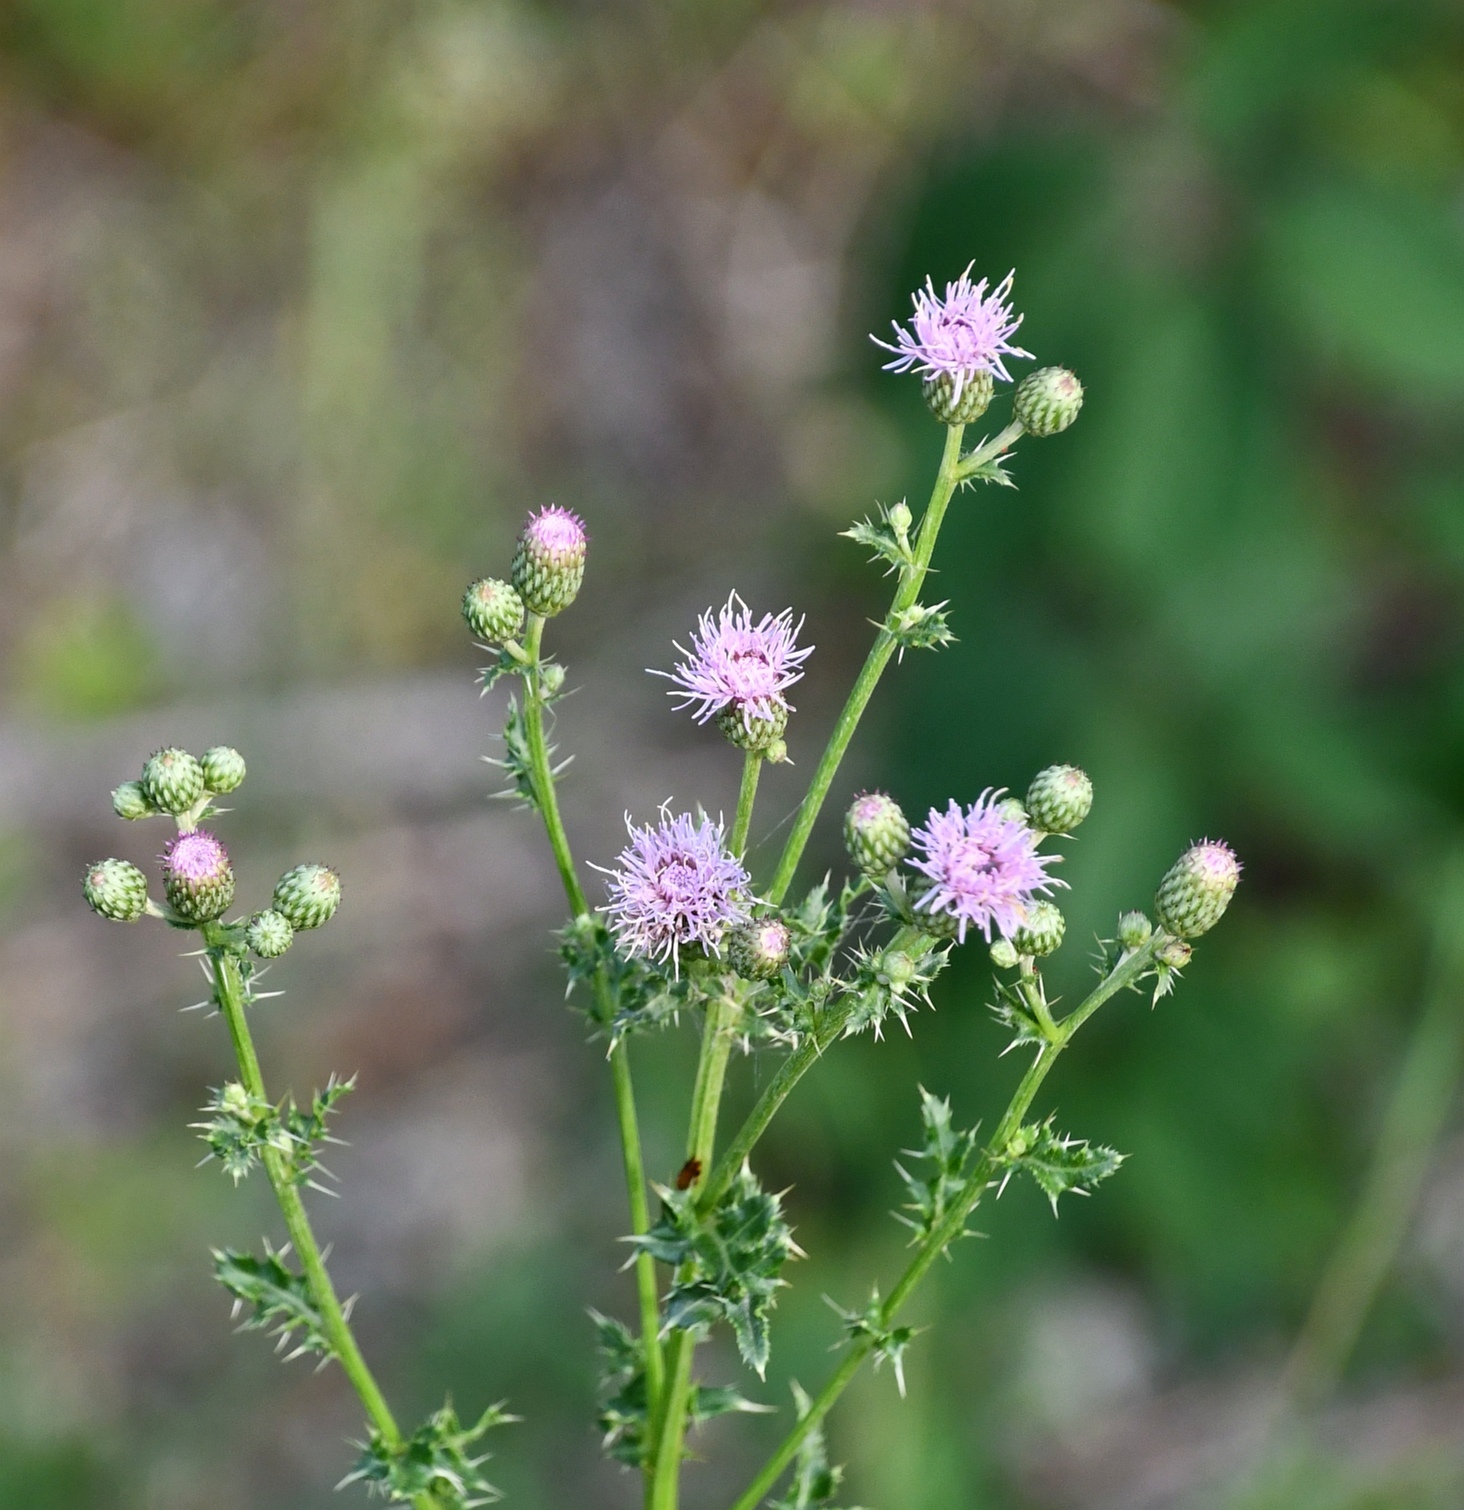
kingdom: Plantae
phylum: Tracheophyta
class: Magnoliopsida
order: Asterales
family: Asteraceae
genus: Cirsium
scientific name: Cirsium arvense
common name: Creeping thistle
